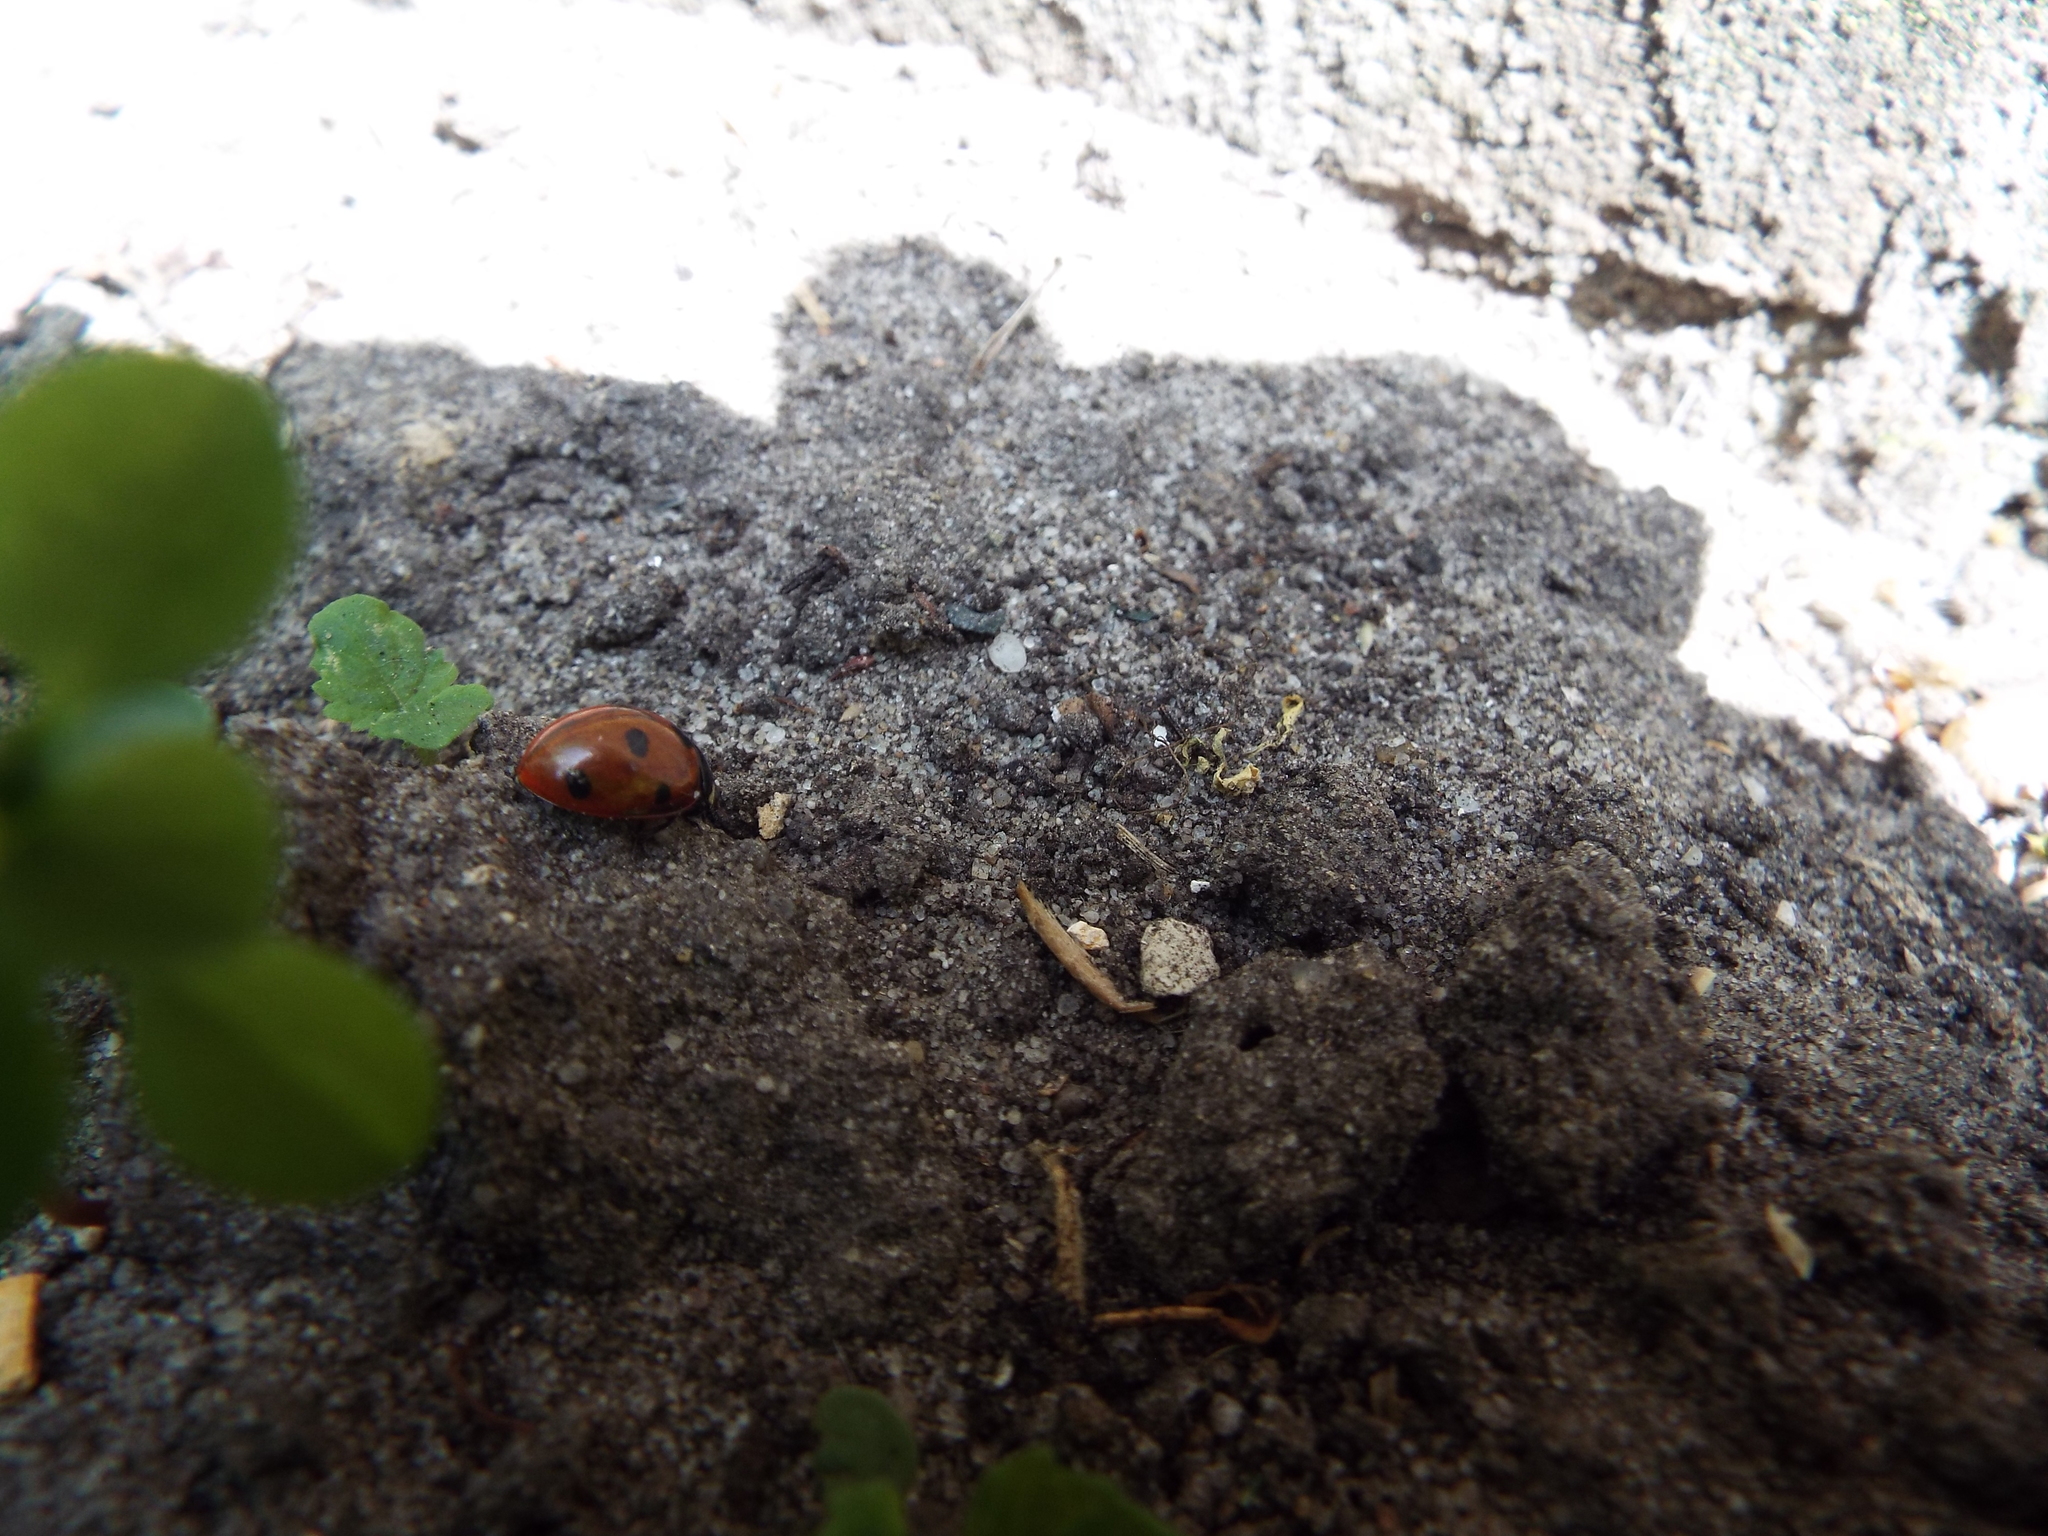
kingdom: Animalia
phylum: Arthropoda
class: Insecta
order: Coleoptera
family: Coccinellidae
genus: Coccinella
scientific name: Coccinella septempunctata
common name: Sevenspotted lady beetle
